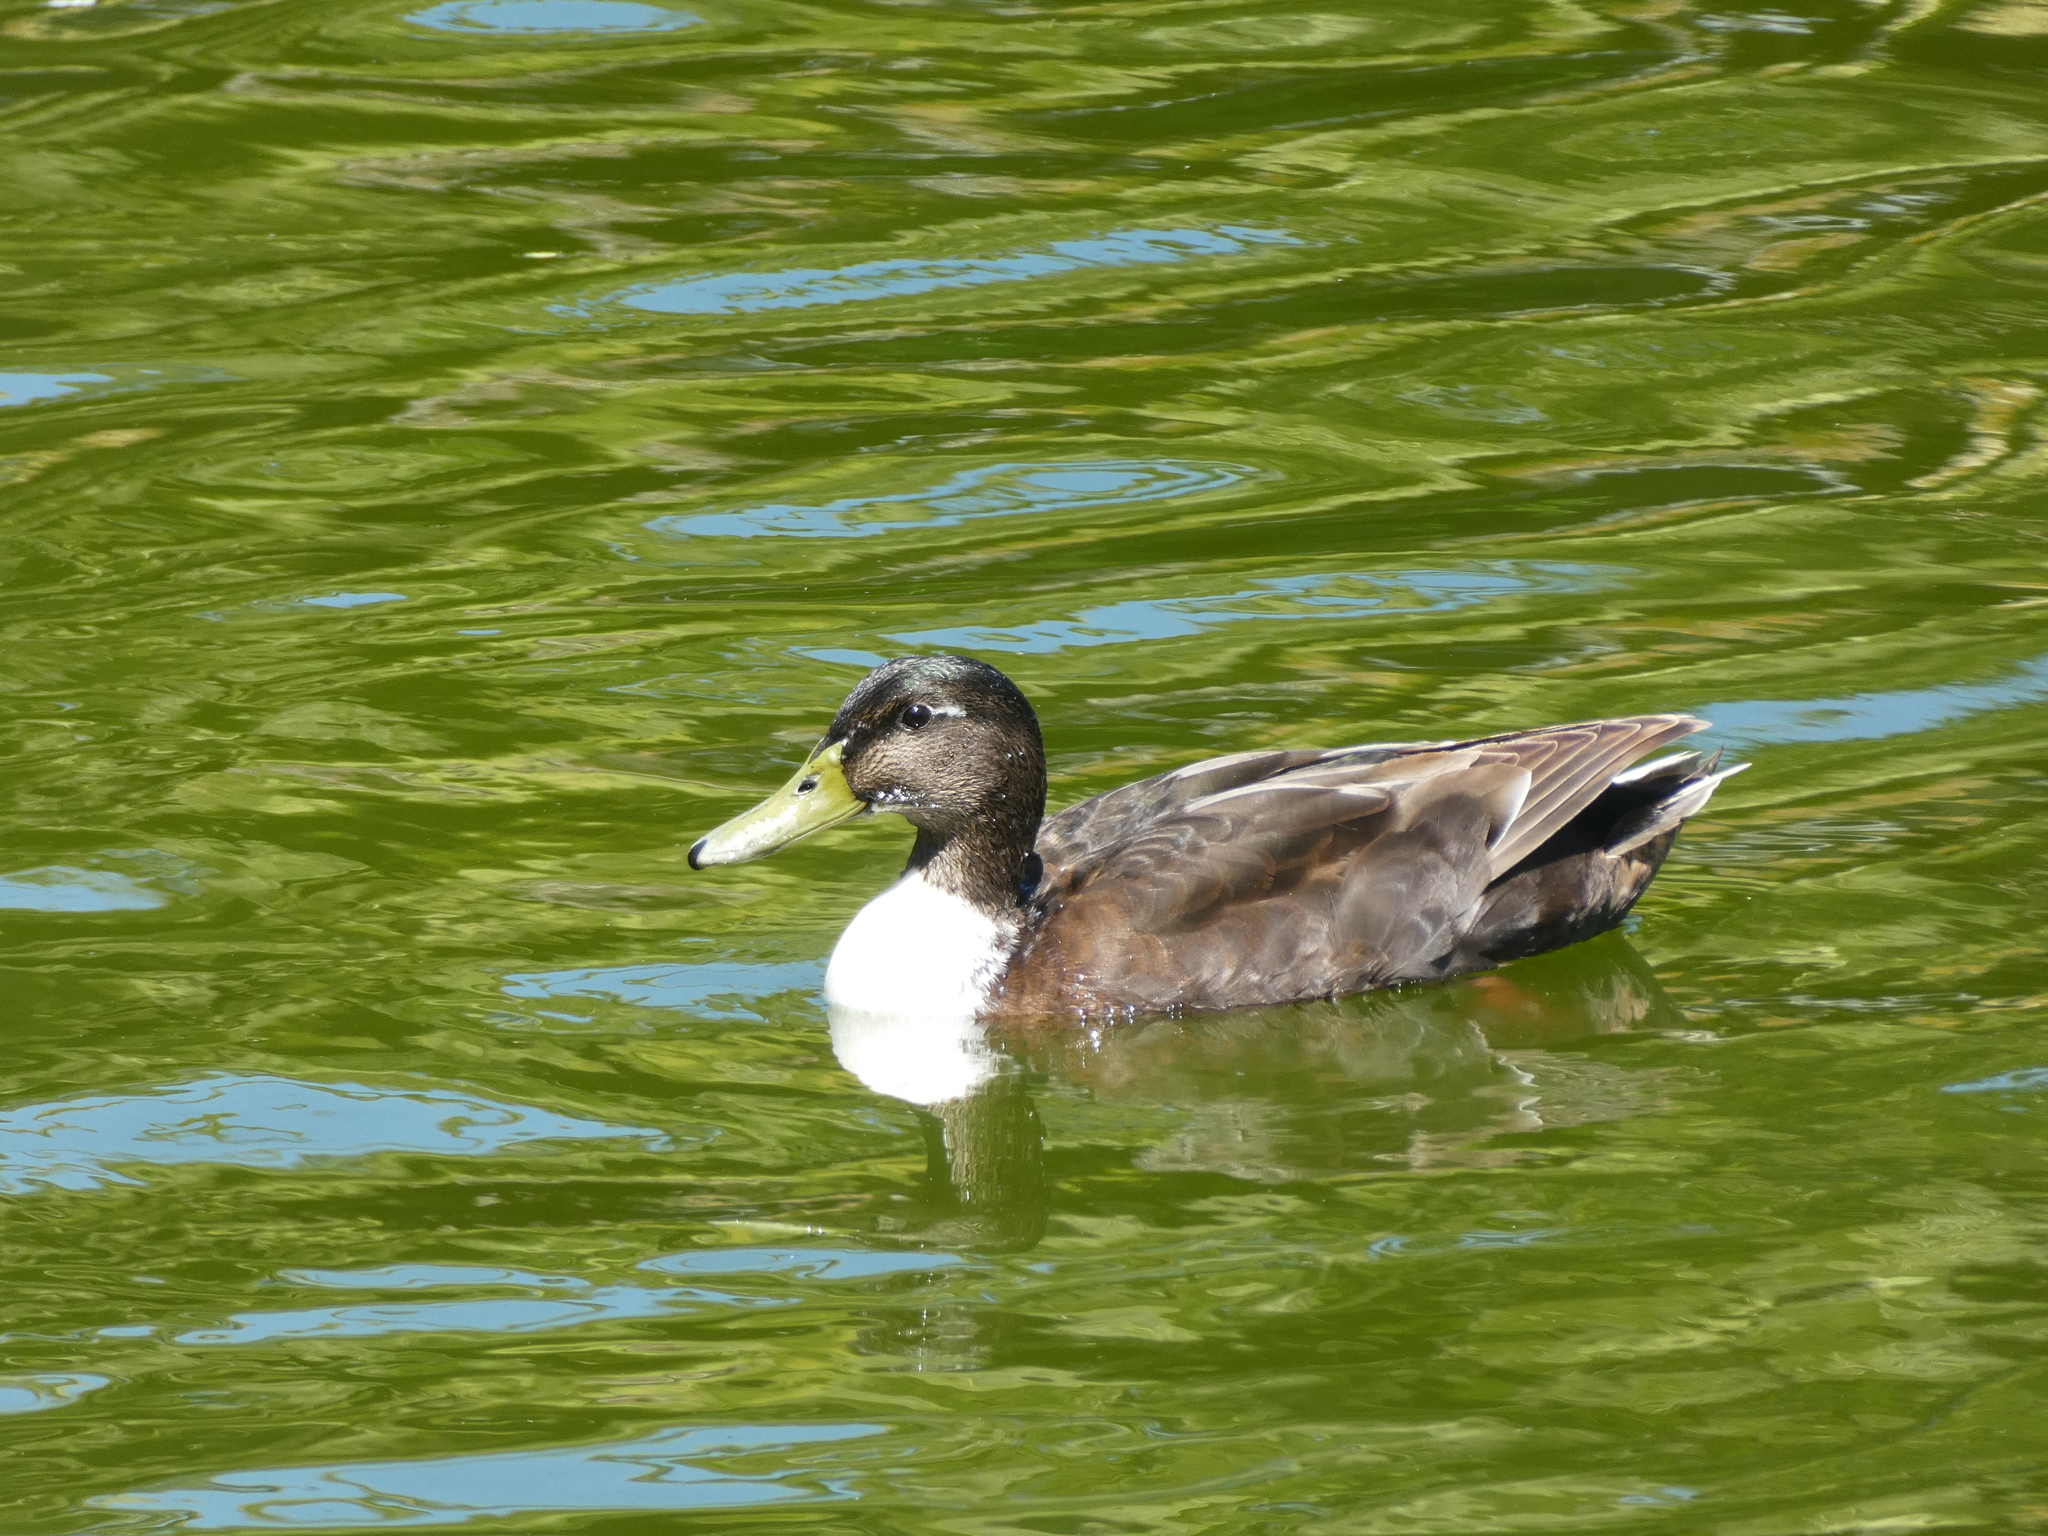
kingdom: Animalia
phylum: Chordata
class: Aves
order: Anseriformes
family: Anatidae
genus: Anas
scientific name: Anas platyrhynchos
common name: Mallard
